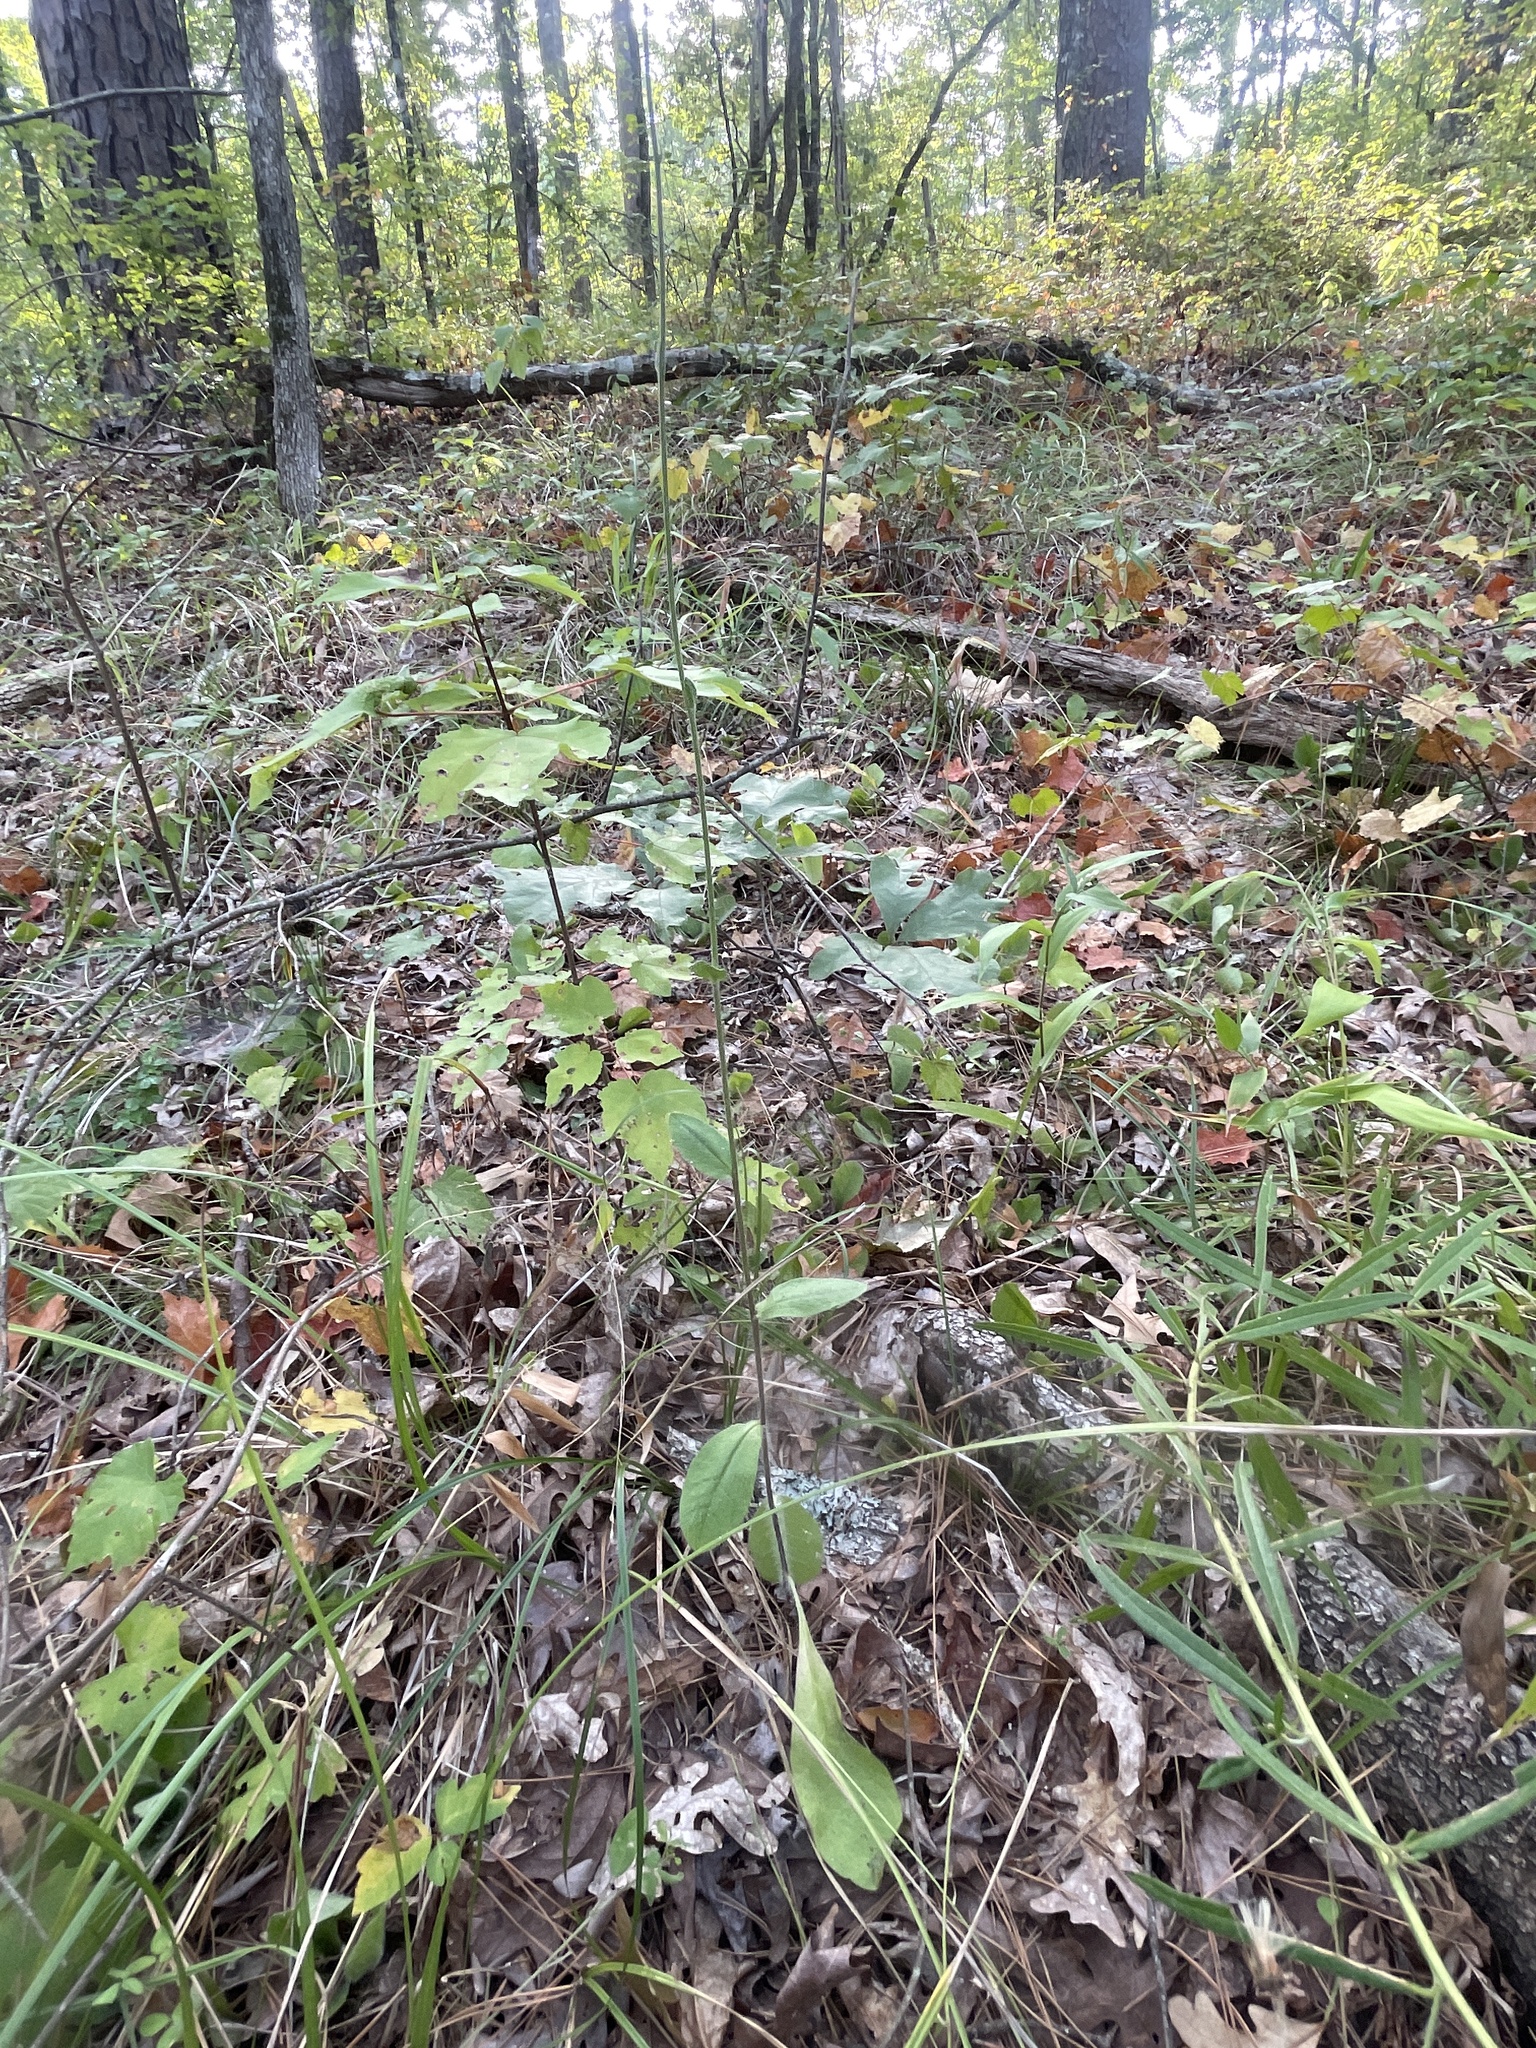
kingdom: Plantae
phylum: Tracheophyta
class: Magnoliopsida
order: Asterales
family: Asteraceae
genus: Hieracium
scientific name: Hieracium gronovii
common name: Beaked hawkweed
